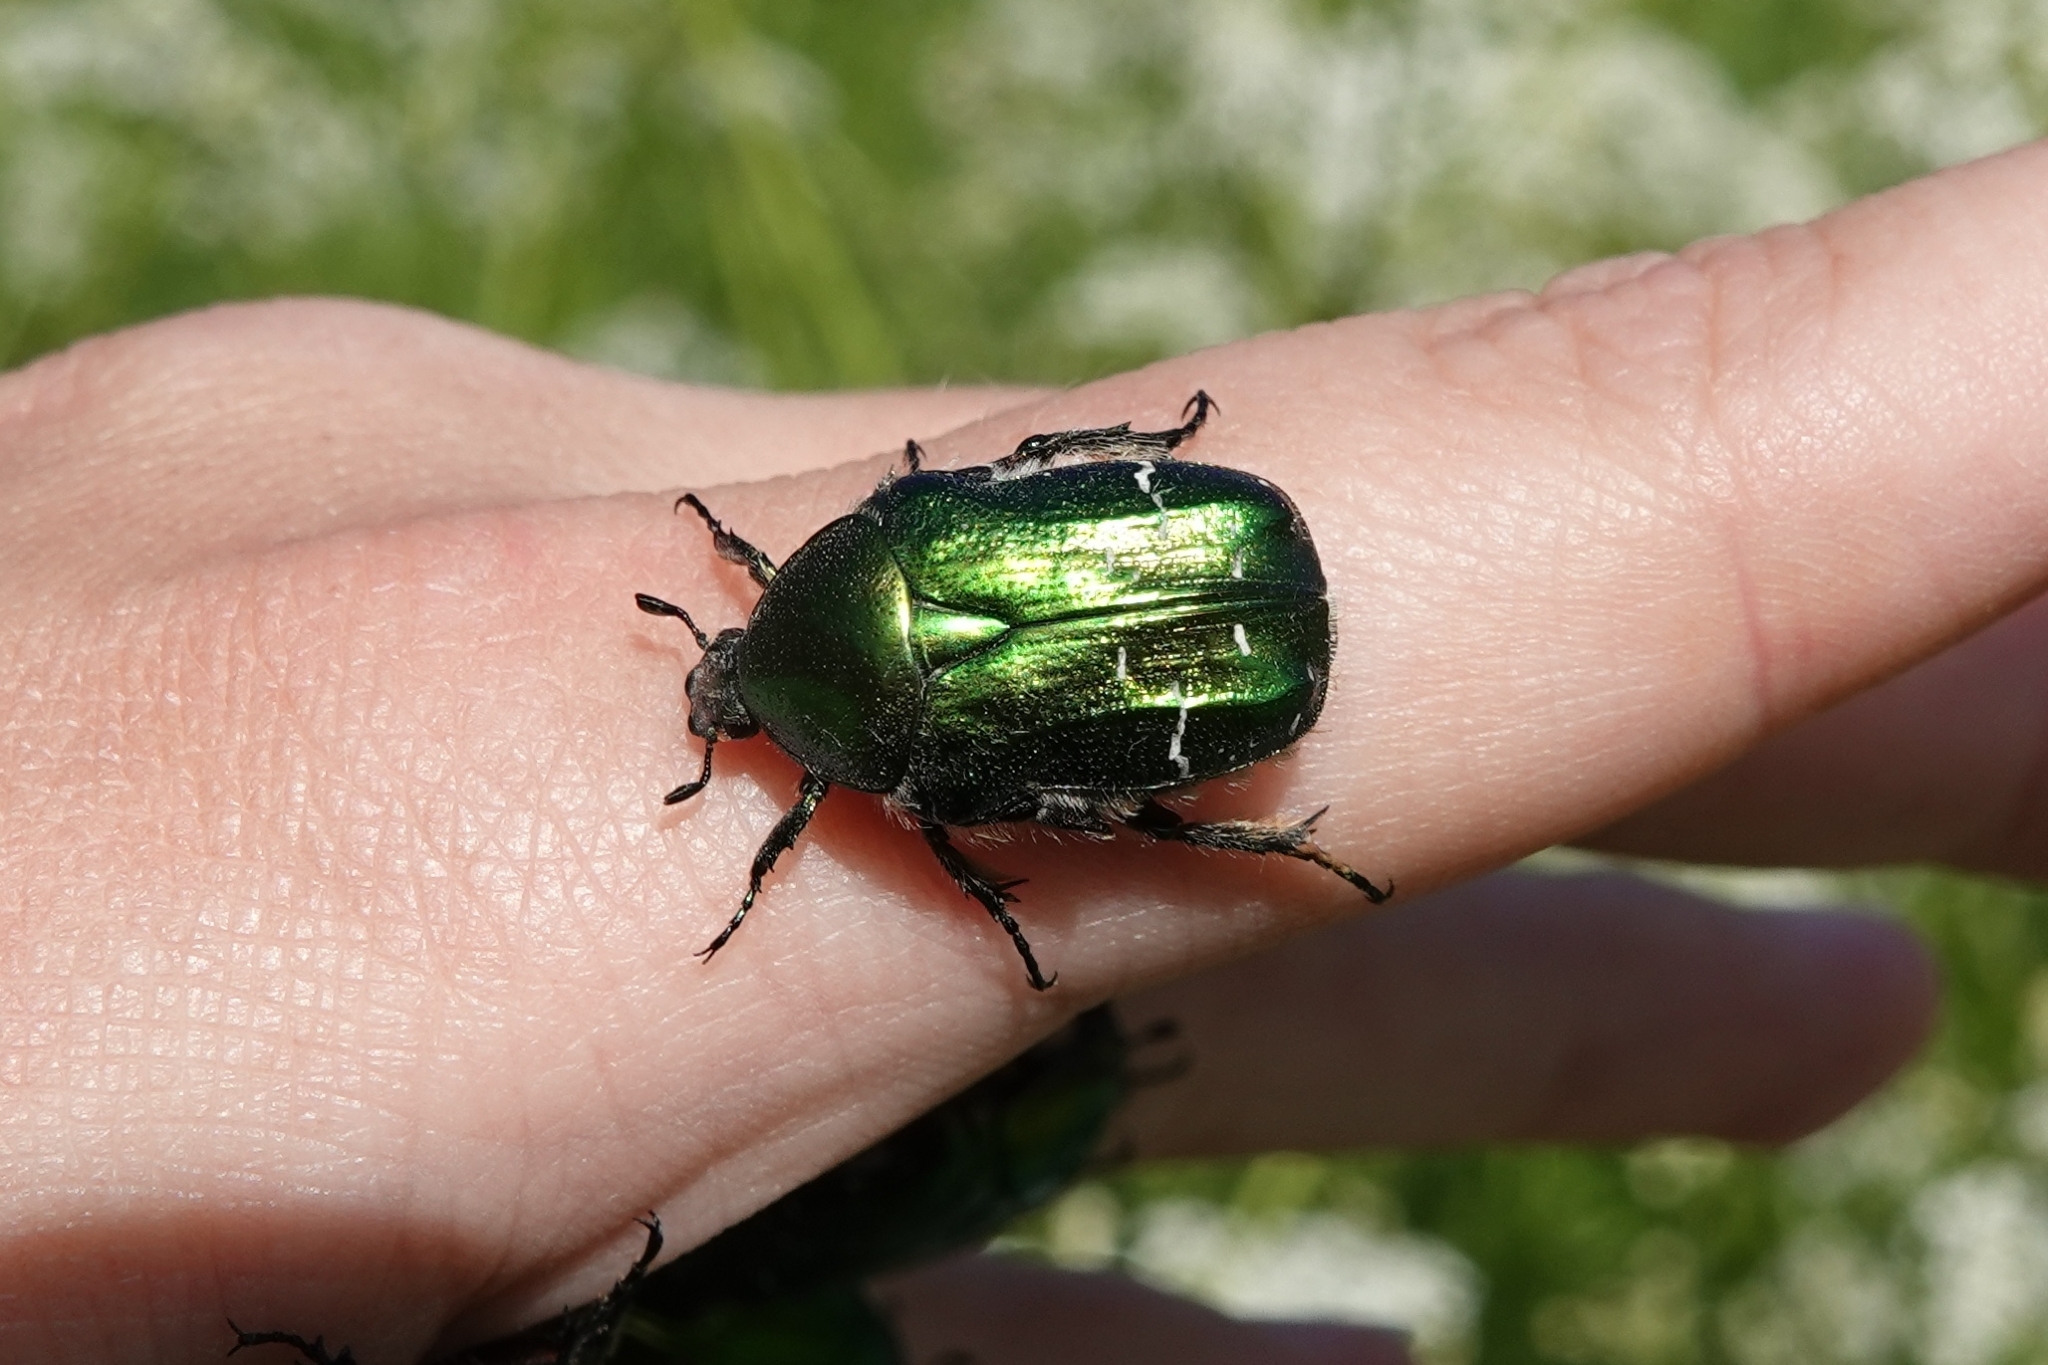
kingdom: Animalia
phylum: Arthropoda
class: Insecta
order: Coleoptera
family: Scarabaeidae
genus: Cetonia
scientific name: Cetonia aurata
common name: Rose chafer
